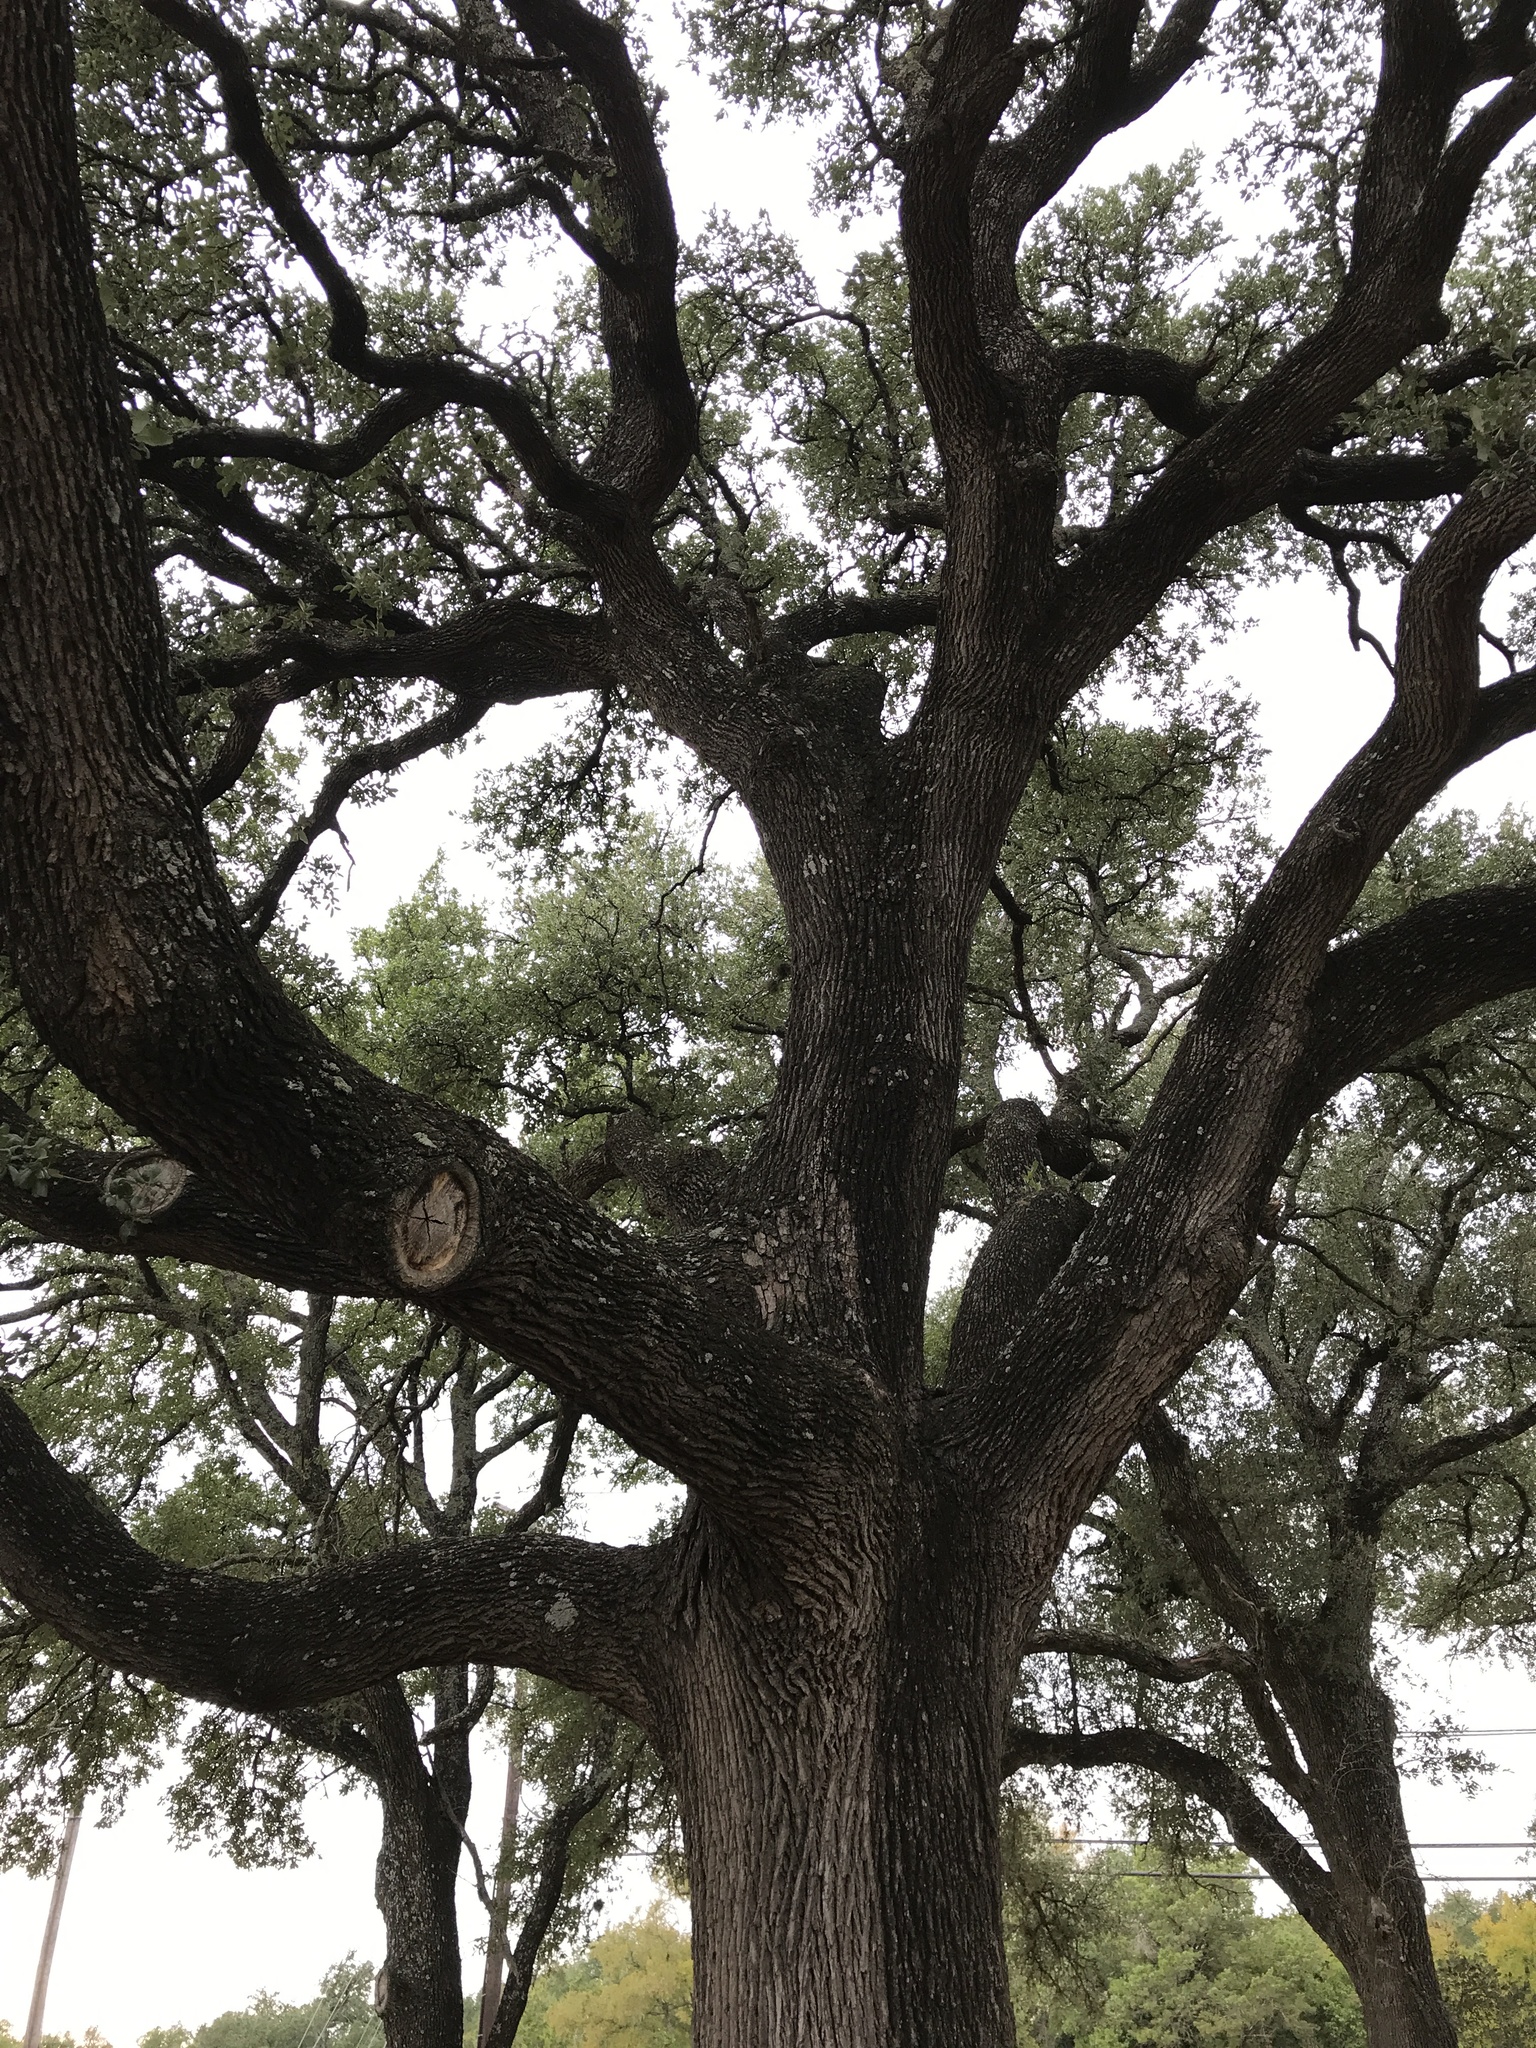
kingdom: Plantae
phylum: Tracheophyta
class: Magnoliopsida
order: Fagales
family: Fagaceae
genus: Quercus
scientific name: Quercus fusiformis
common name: Texas live oak
